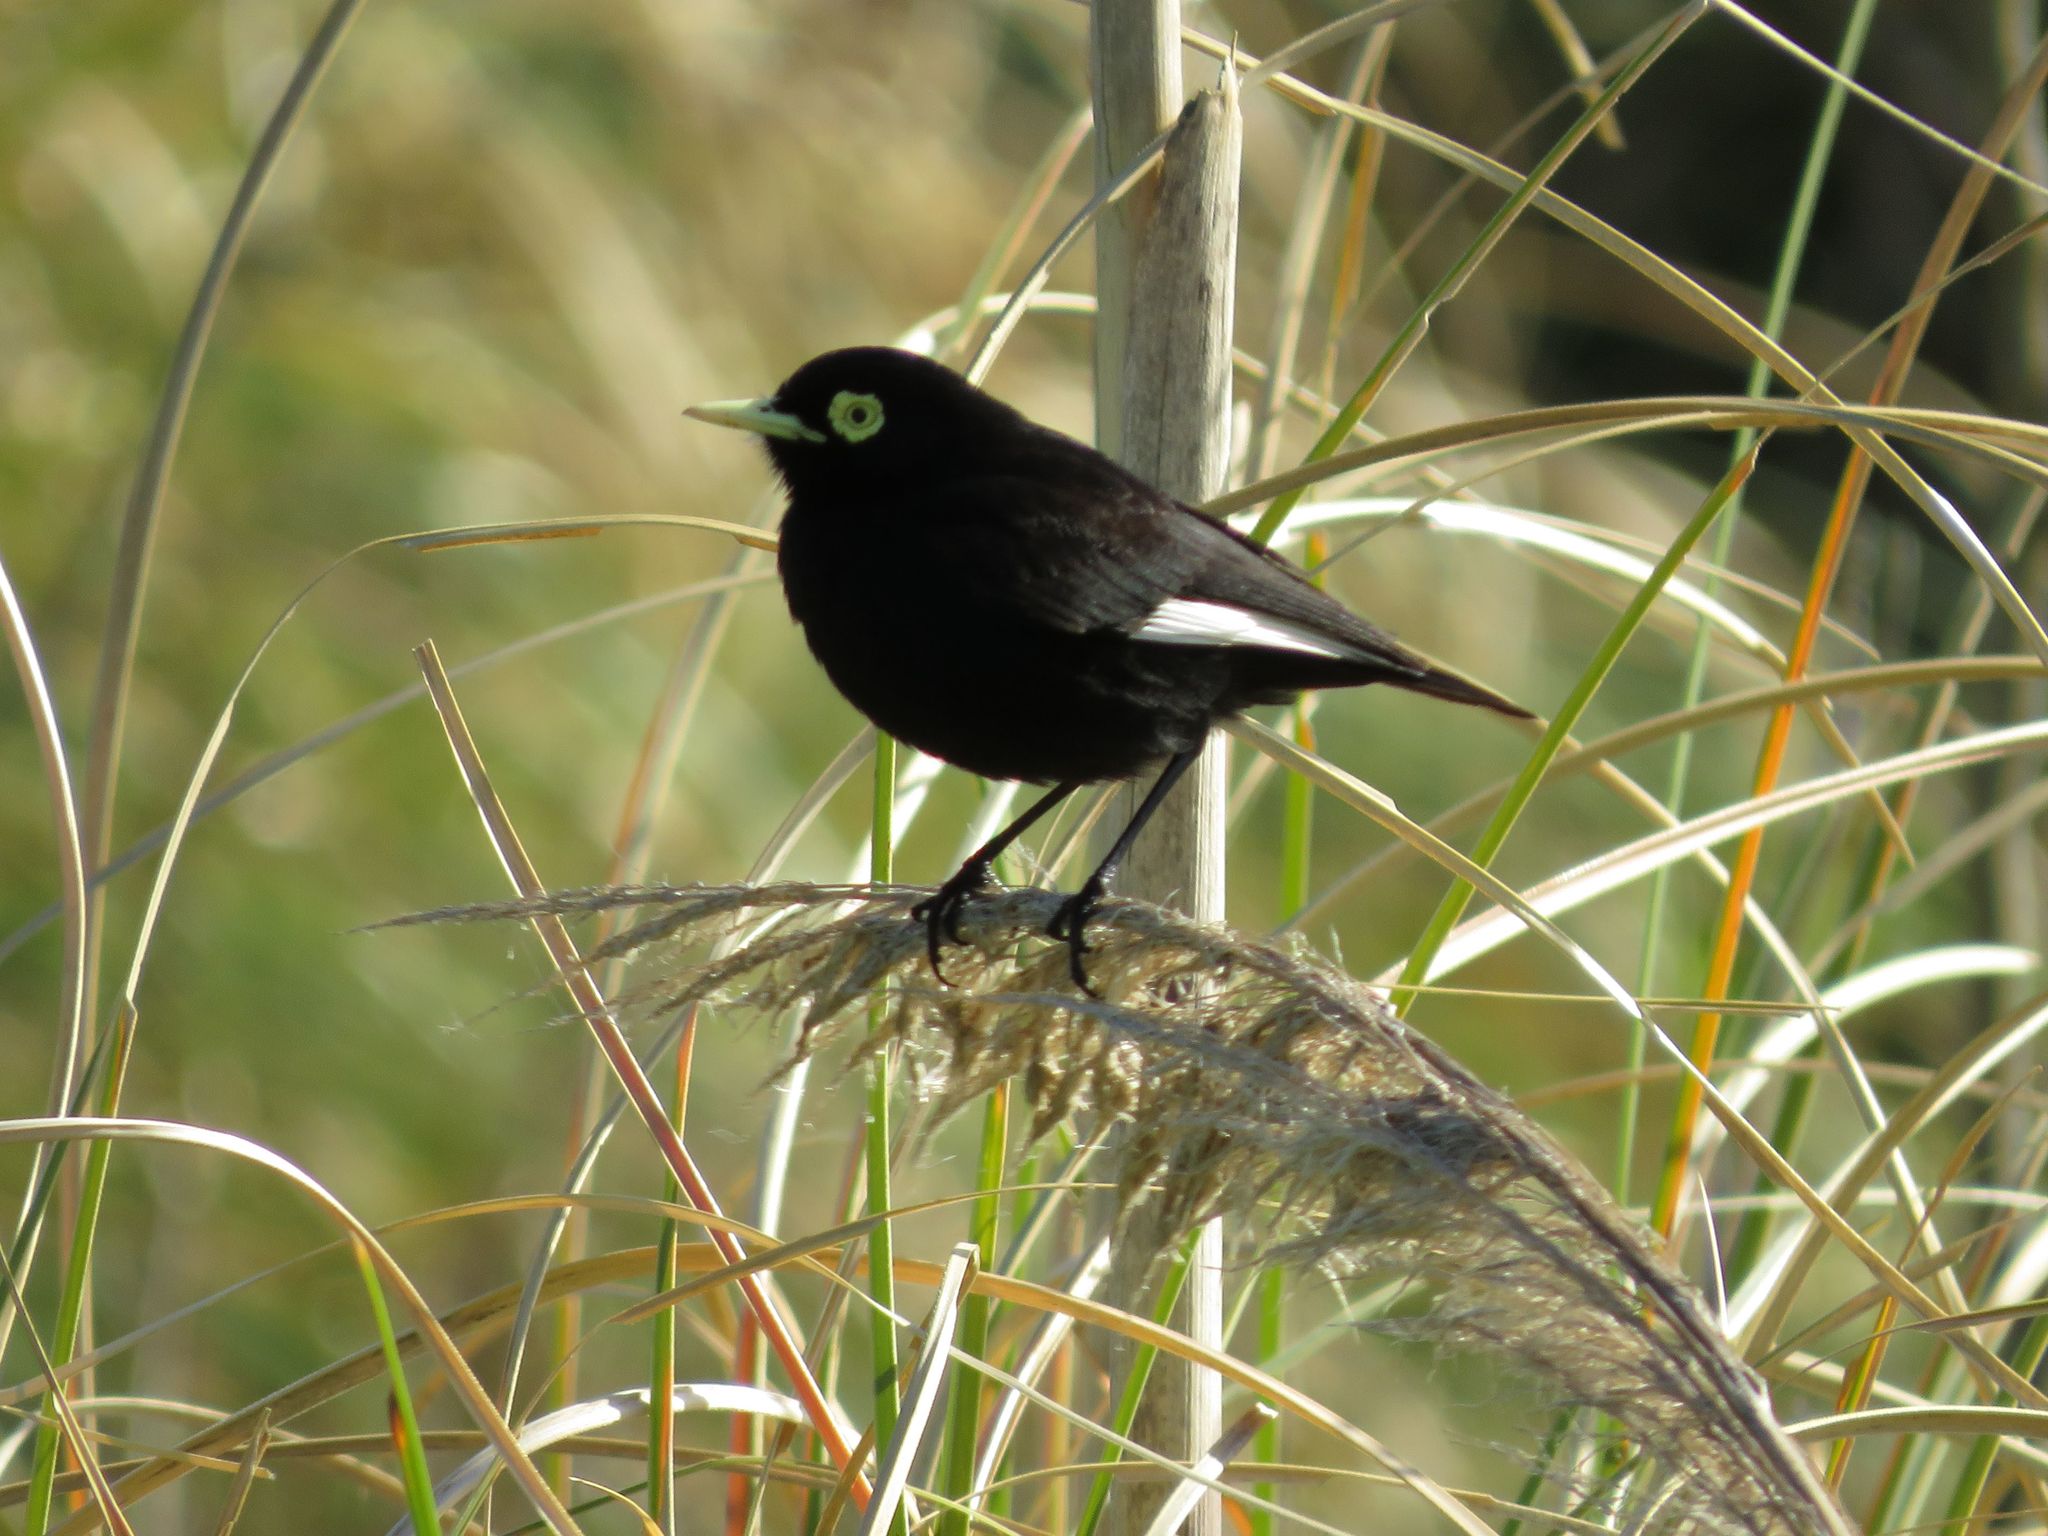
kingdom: Animalia
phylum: Chordata
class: Aves
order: Passeriformes
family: Tyrannidae
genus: Hymenops
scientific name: Hymenops perspicillatus
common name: Spectacled tyrant
